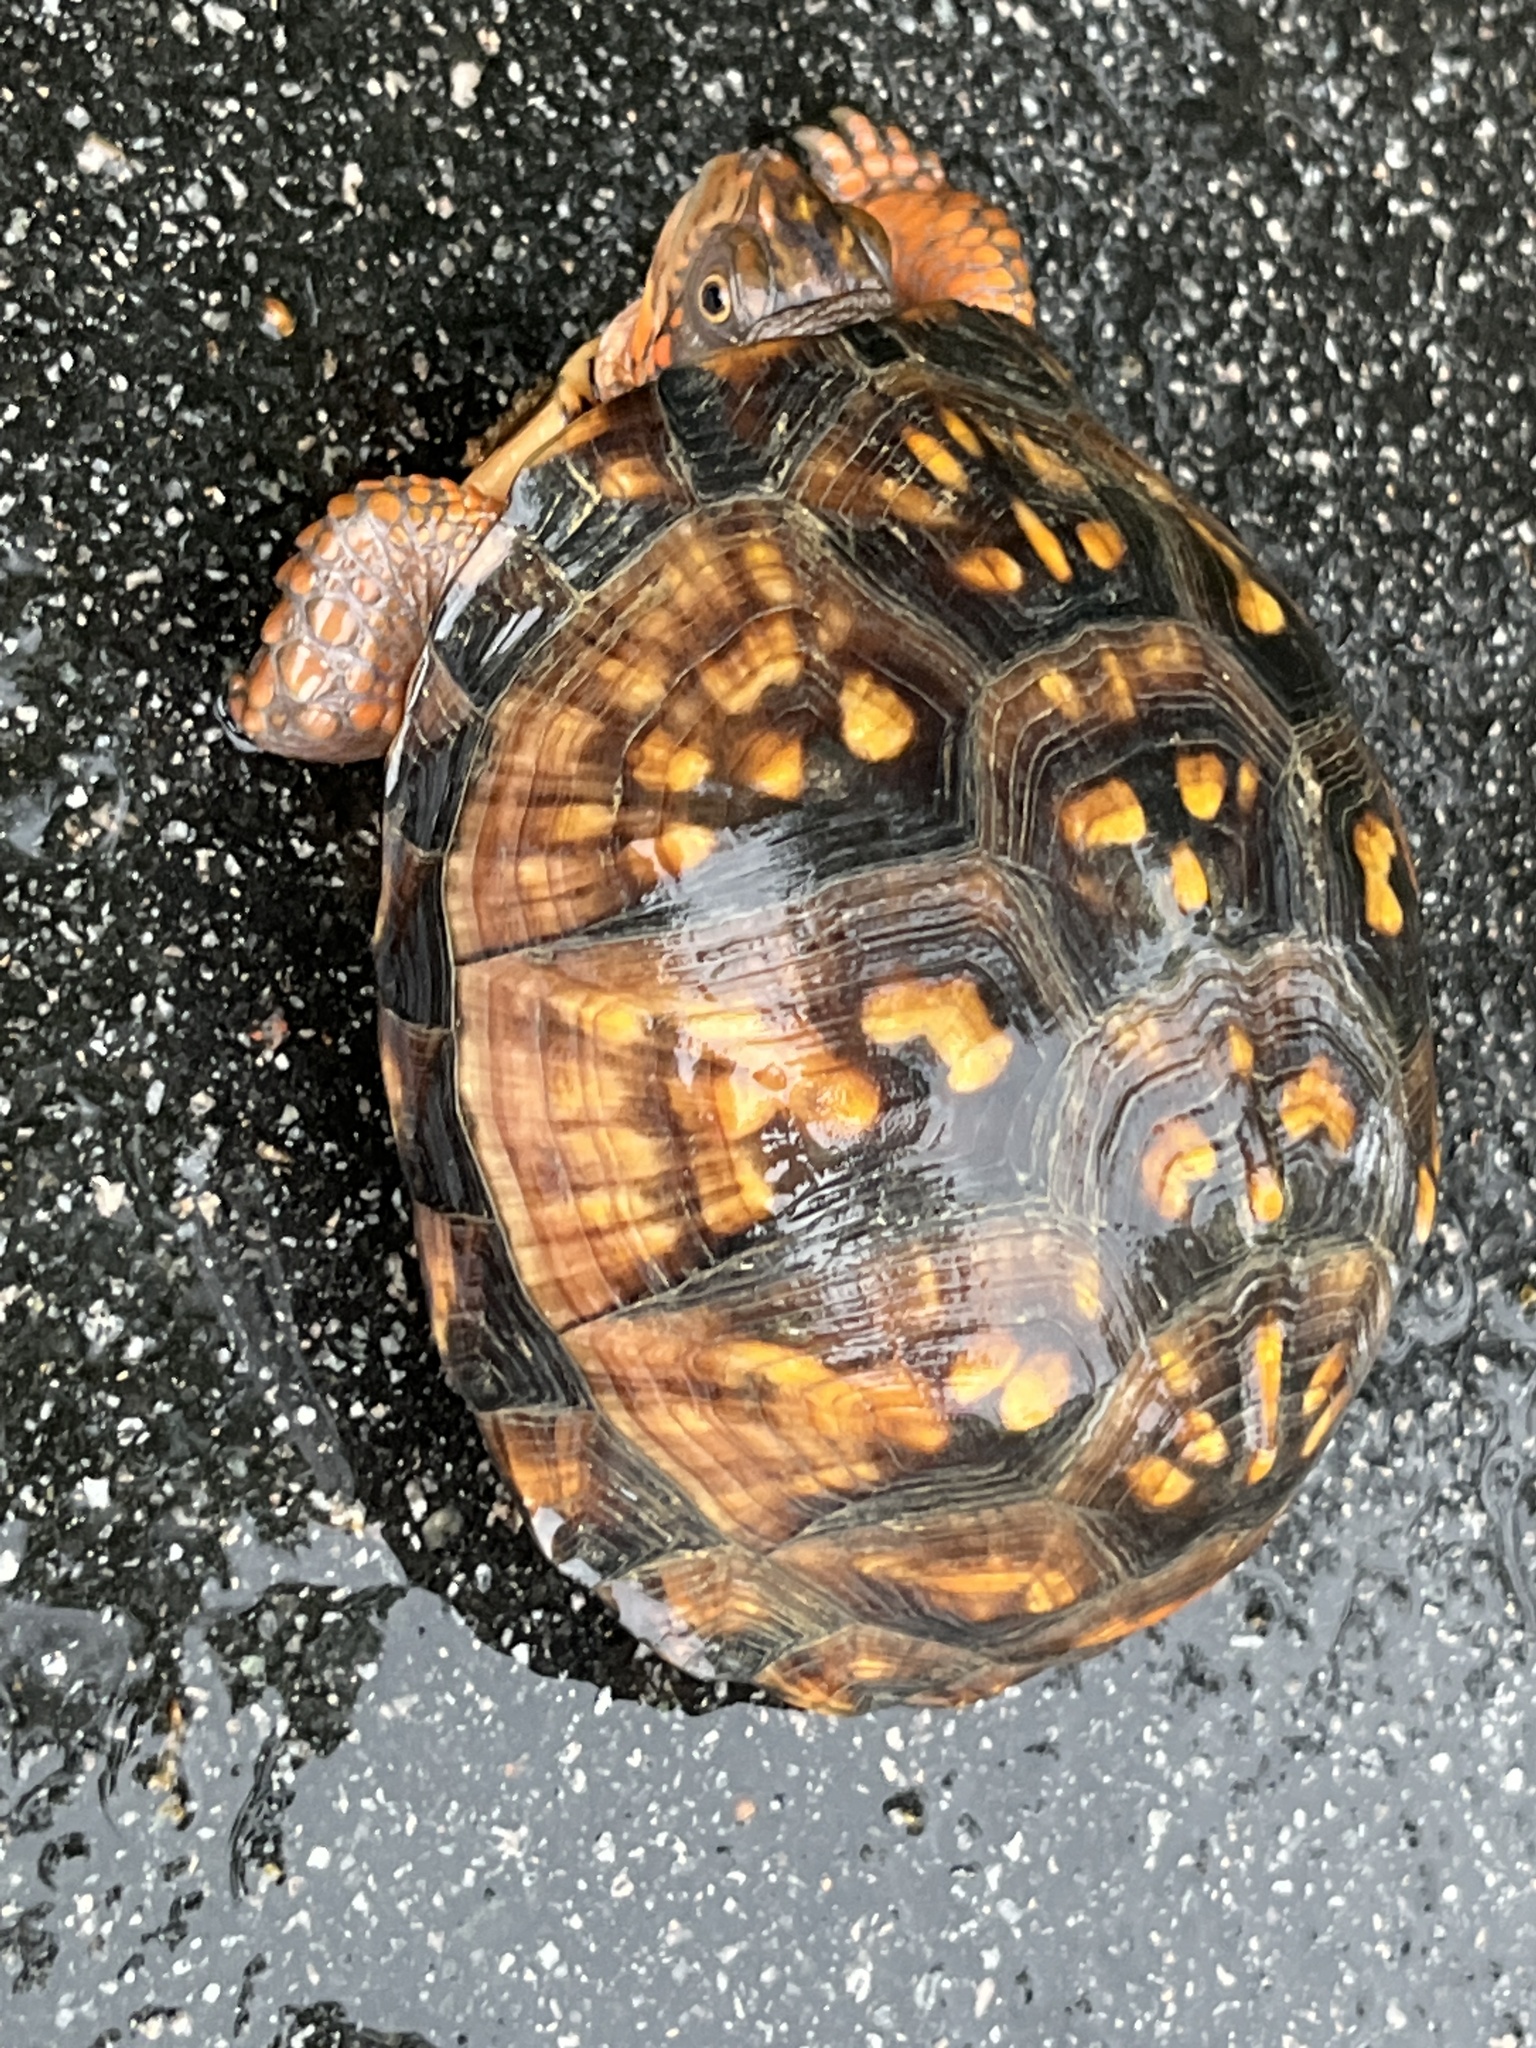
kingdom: Animalia
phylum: Chordata
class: Testudines
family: Emydidae
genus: Terrapene
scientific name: Terrapene carolina
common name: Common box turtle
